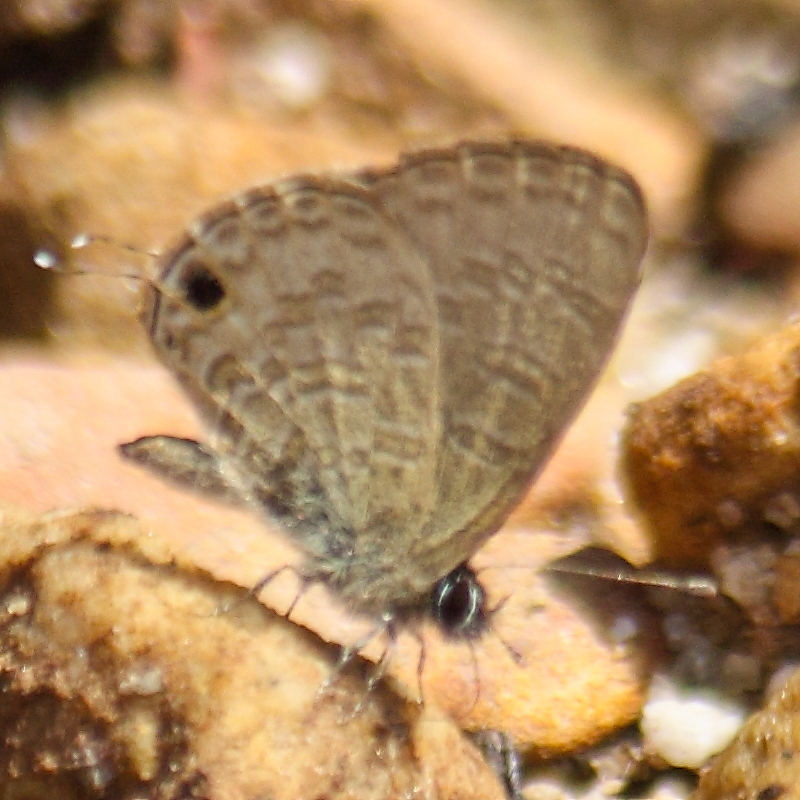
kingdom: Animalia
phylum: Arthropoda
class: Insecta
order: Lepidoptera
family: Lycaenidae
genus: Prosotas
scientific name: Prosotas nora
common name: Common line blue
